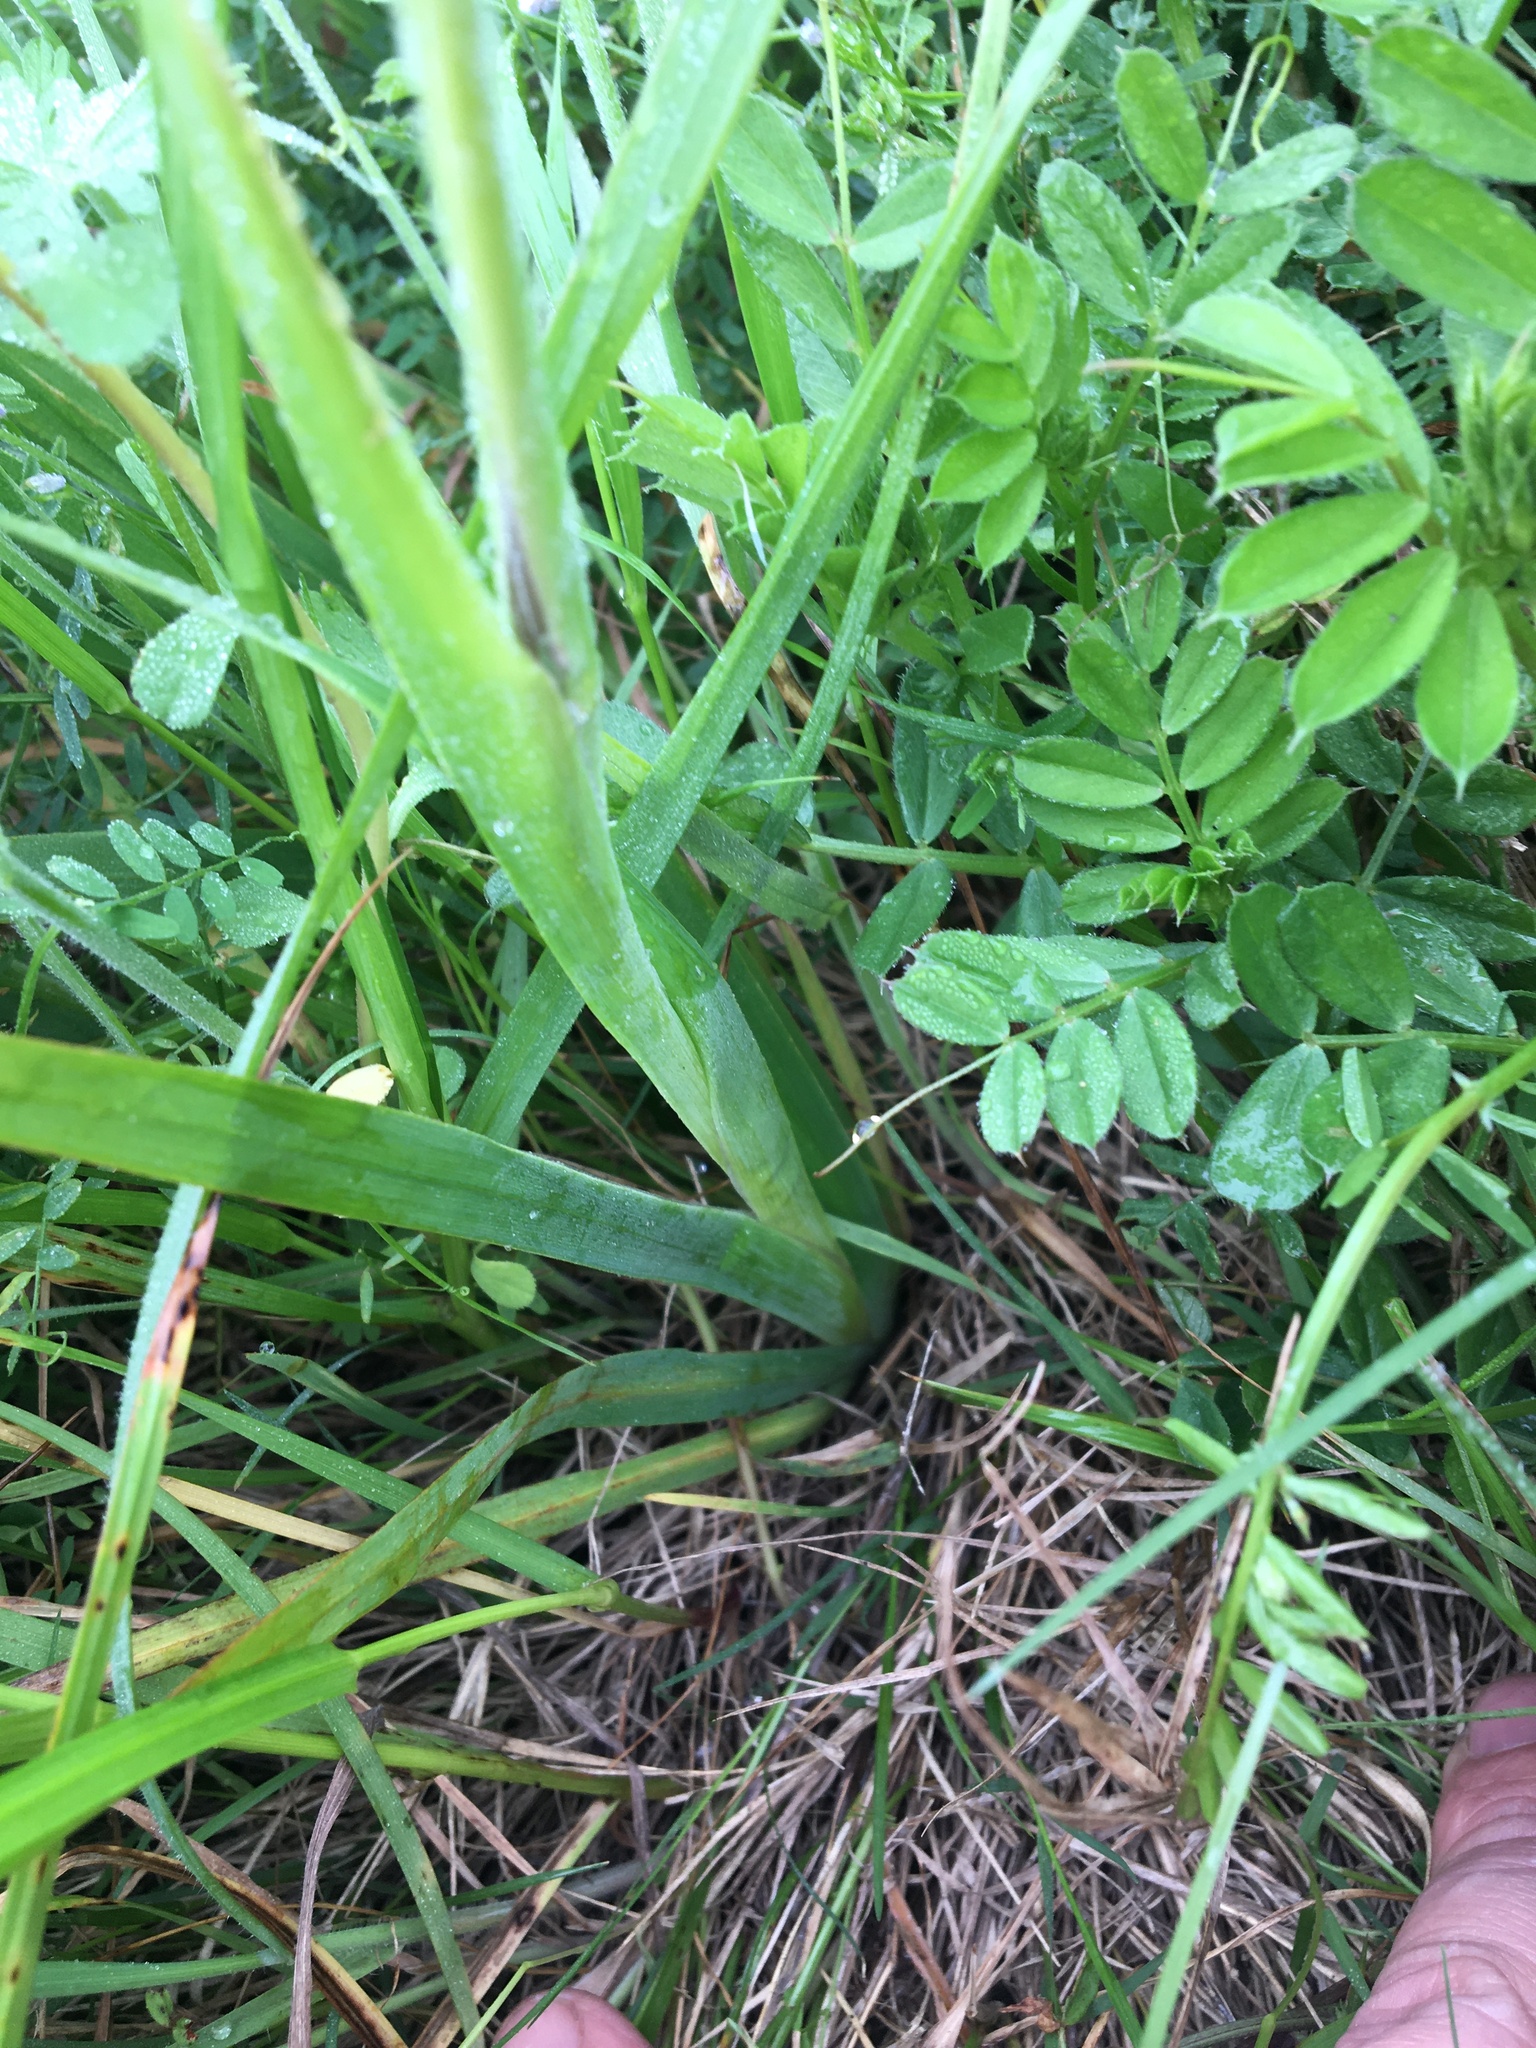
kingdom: Plantae
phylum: Tracheophyta
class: Liliopsida
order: Asparagales
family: Iridaceae
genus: Sparaxis
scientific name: Sparaxis bulbifera
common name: Harlequin-flower
